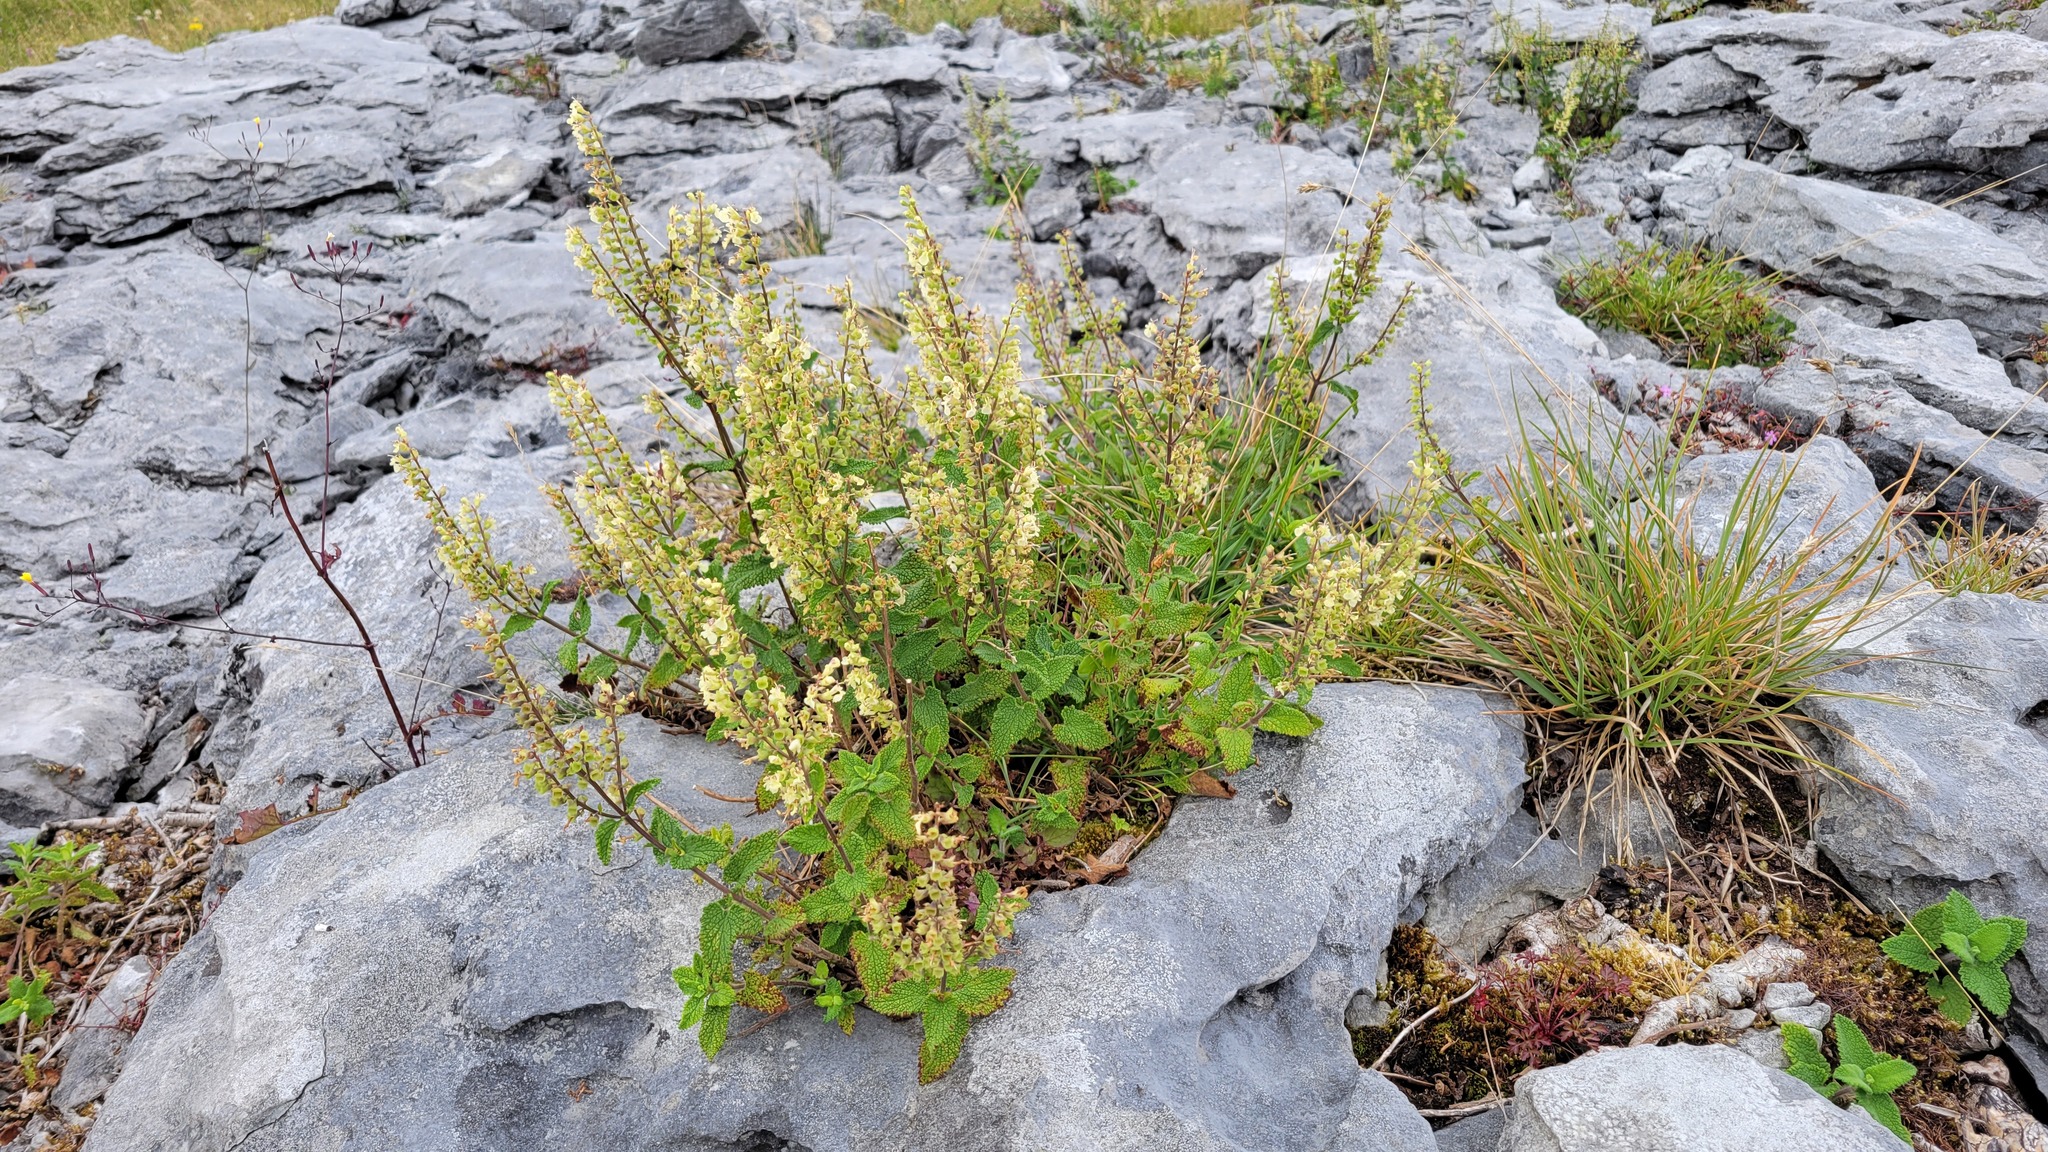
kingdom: Plantae
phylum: Tracheophyta
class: Magnoliopsida
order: Lamiales
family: Lamiaceae
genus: Teucrium
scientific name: Teucrium scorodonia
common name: Woodland germander
